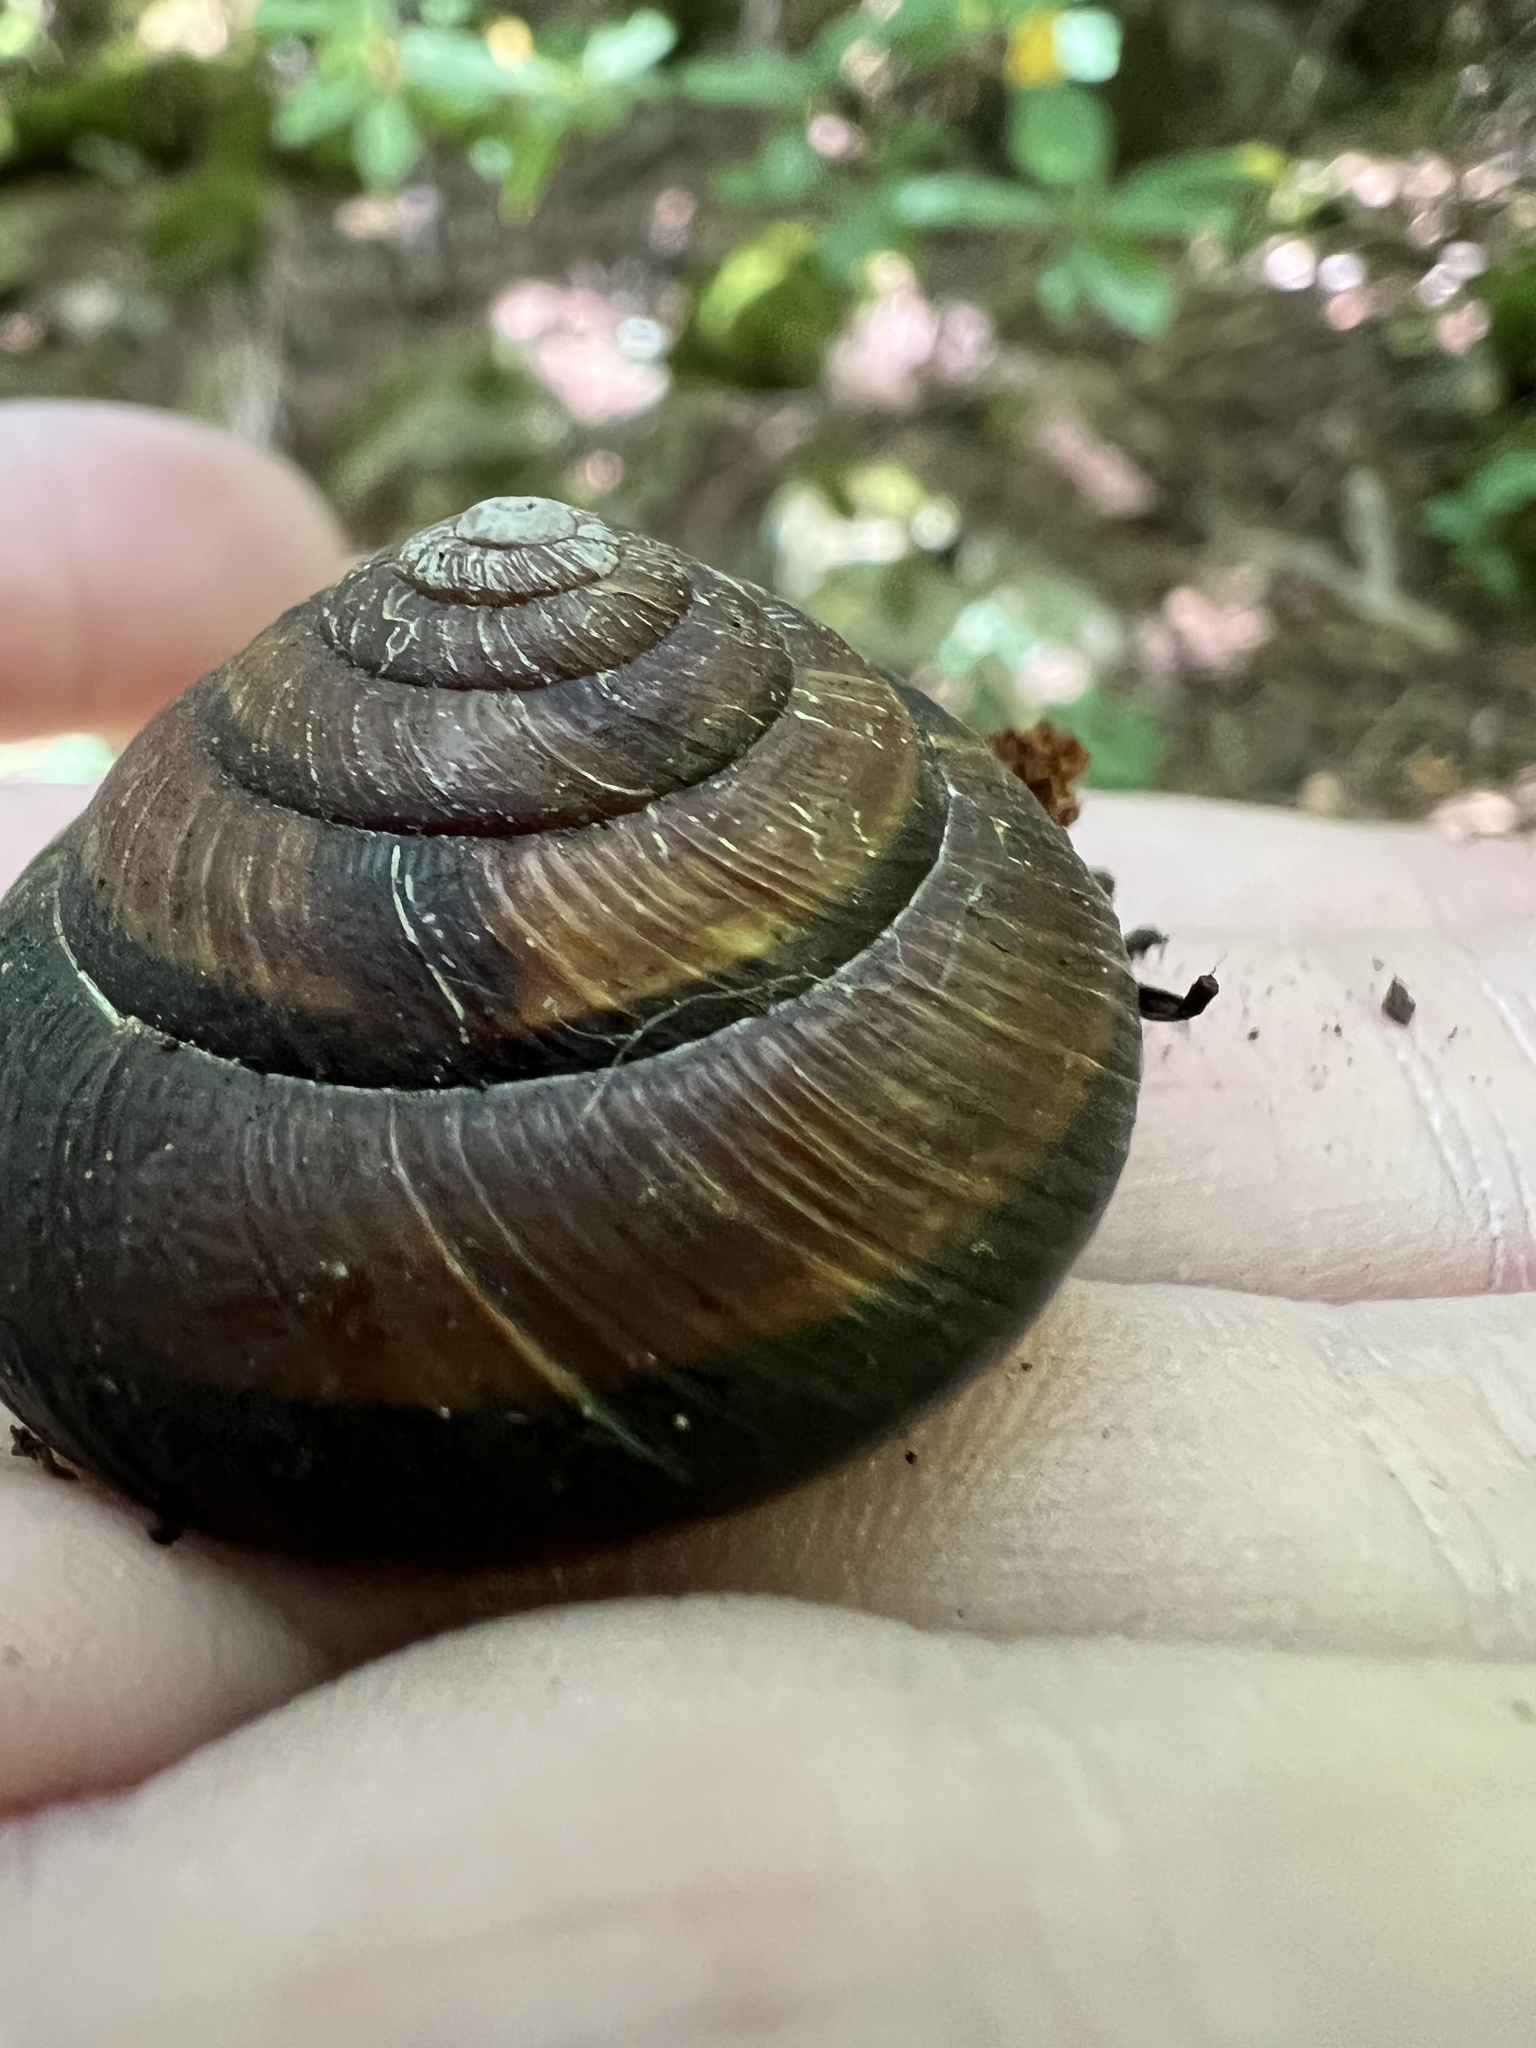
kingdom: Animalia
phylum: Mollusca
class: Gastropoda
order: Stylommatophora
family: Xanthonychidae
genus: Monadenia
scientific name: Monadenia fidelis
